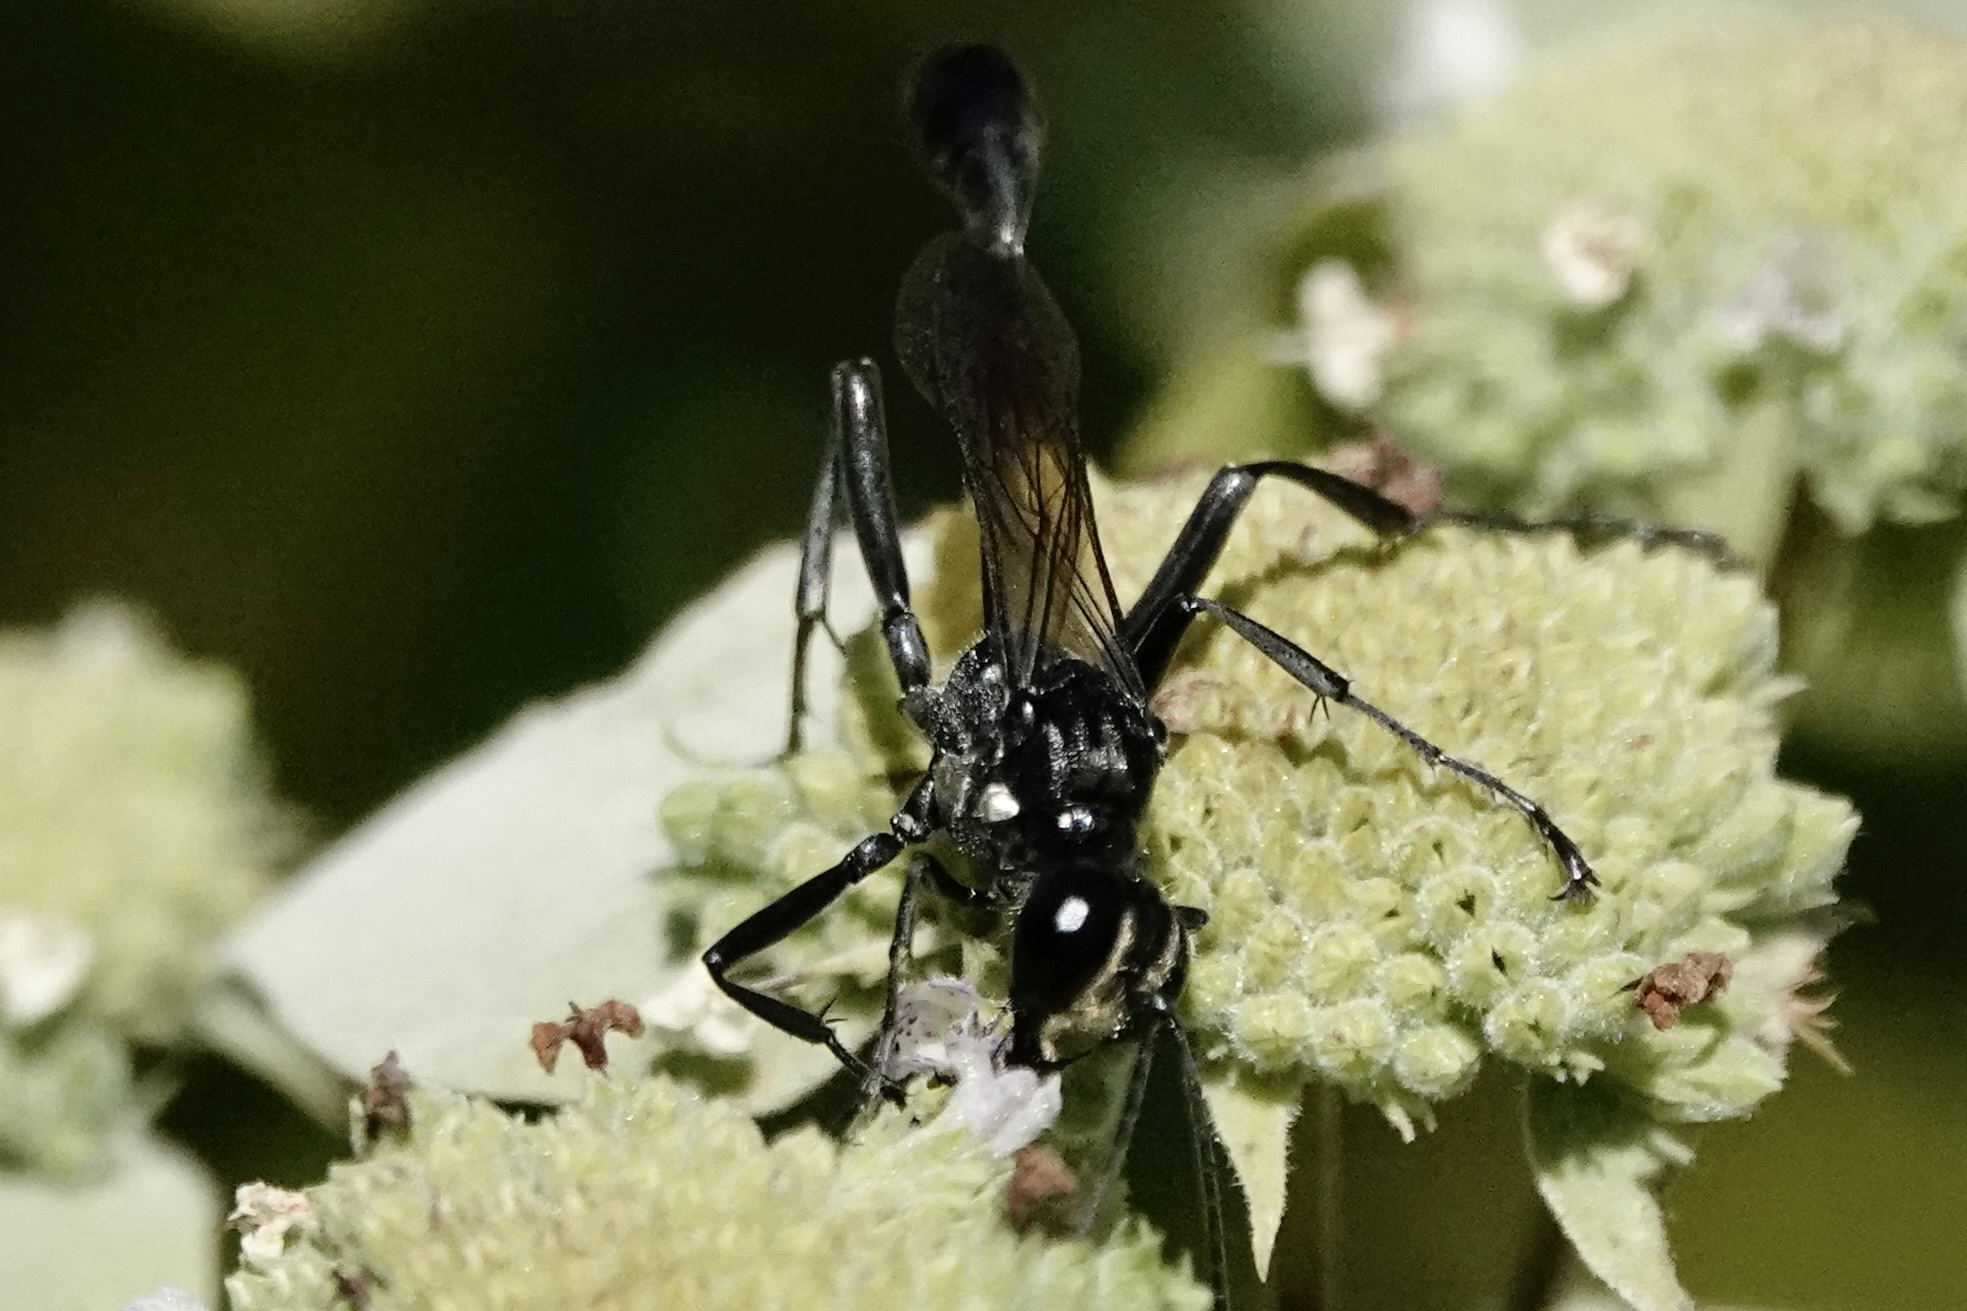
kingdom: Animalia
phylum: Arthropoda
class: Insecta
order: Hymenoptera
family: Sphecidae
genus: Eremnophila
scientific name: Eremnophila aureonotata
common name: Gold-marked thread-waisted wasp
